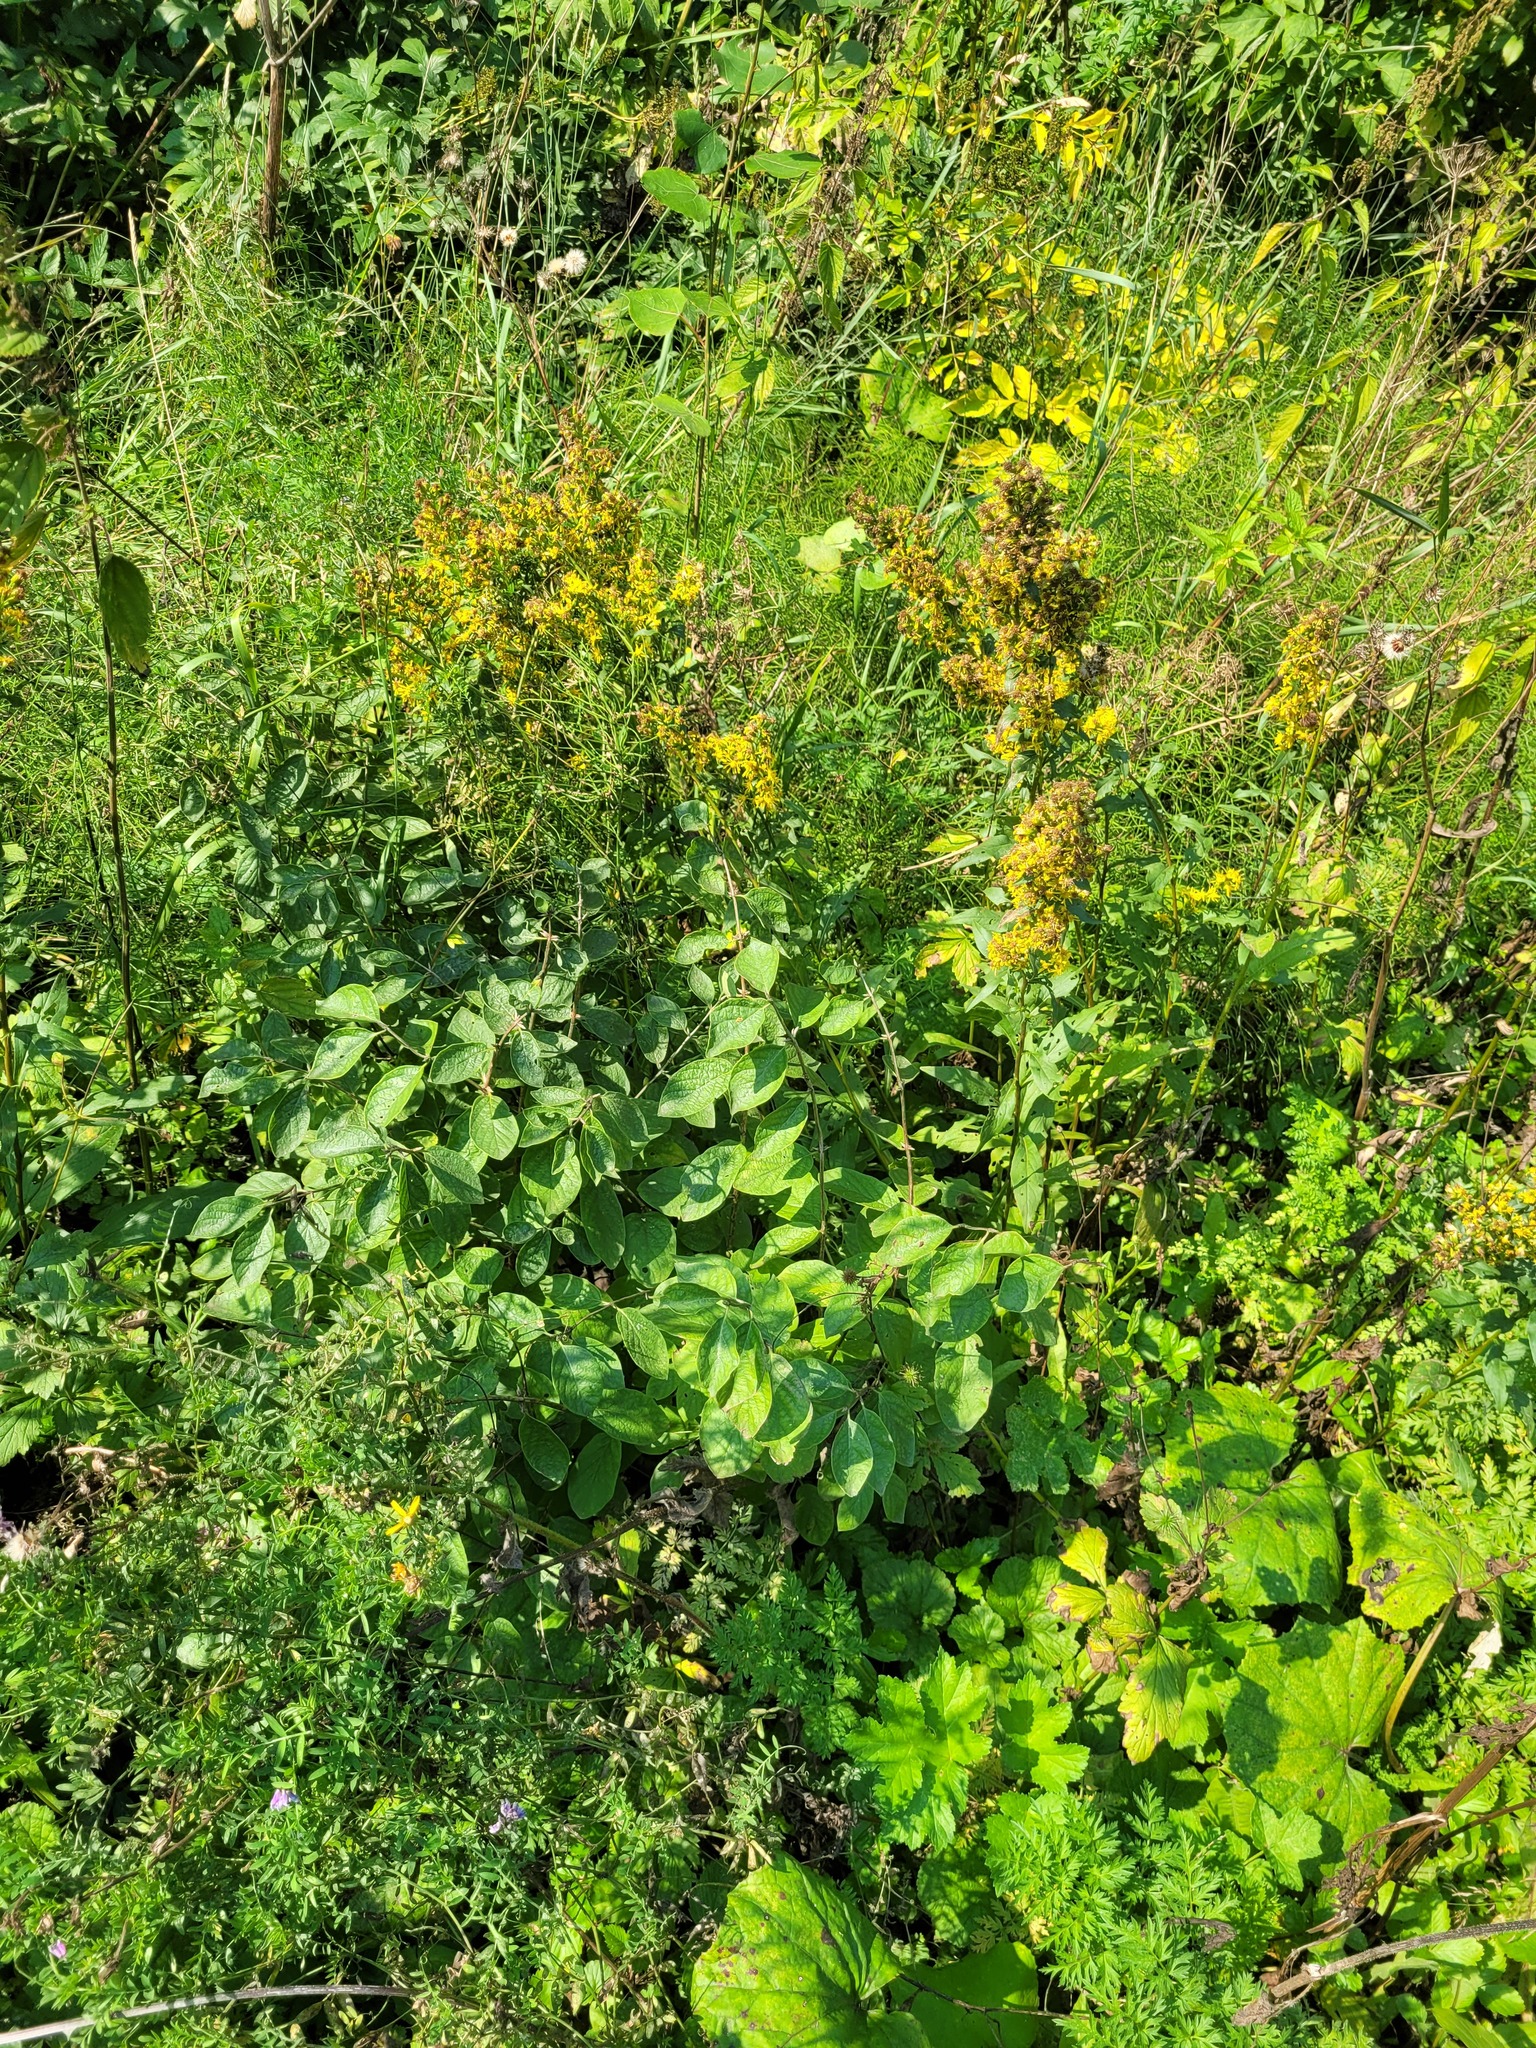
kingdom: Plantae
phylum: Tracheophyta
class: Magnoliopsida
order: Dipsacales
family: Caprifoliaceae
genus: Lonicera
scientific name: Lonicera xylosteum
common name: Fly honeysuckle
